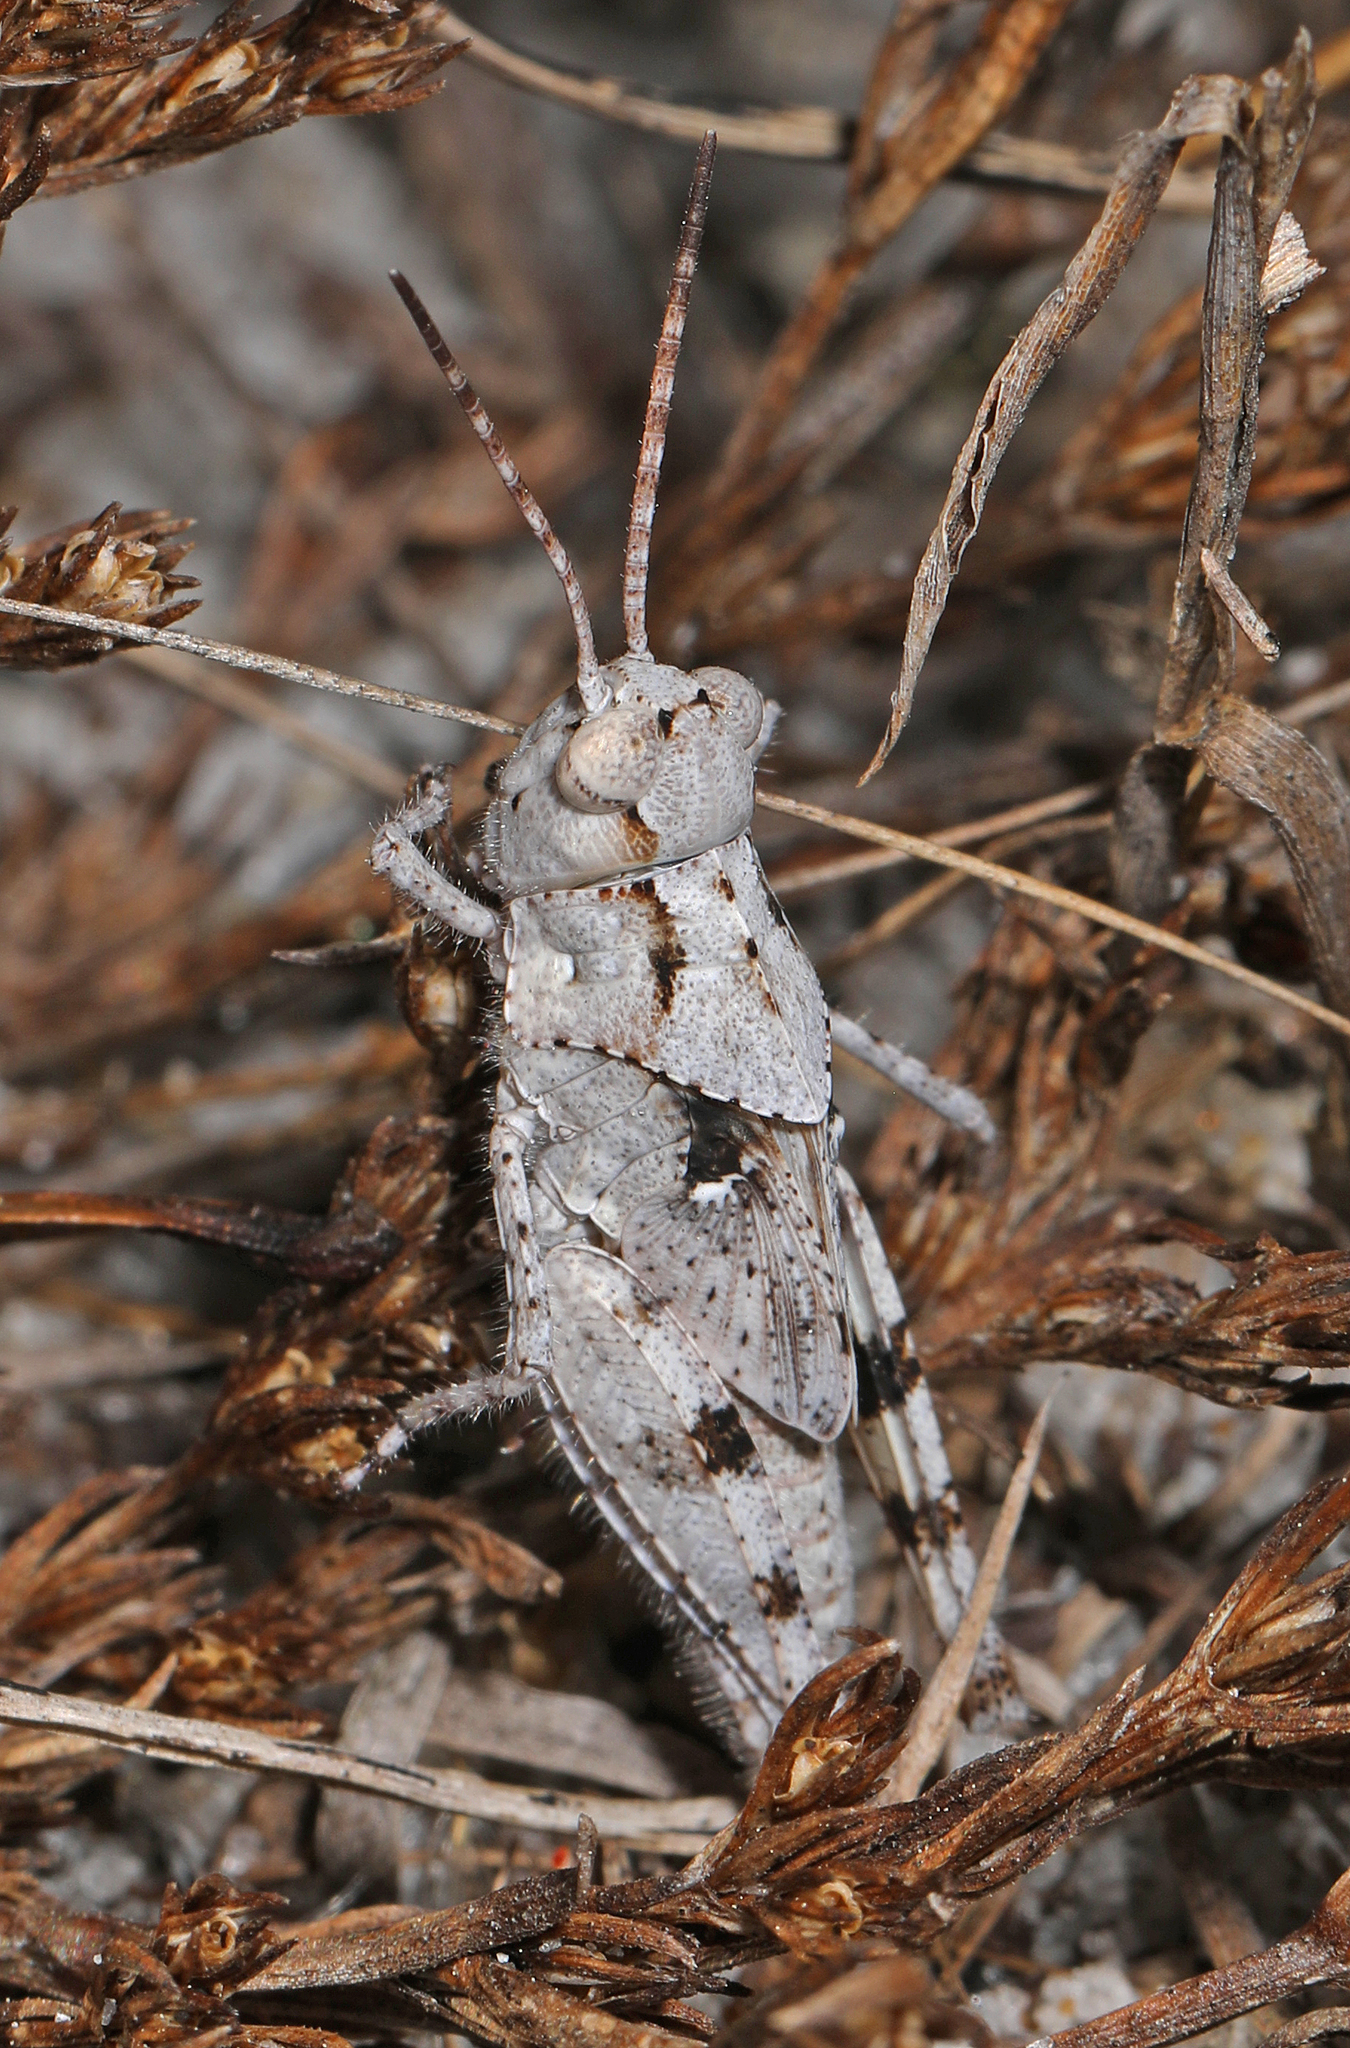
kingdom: Animalia
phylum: Arthropoda
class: Insecta
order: Orthoptera
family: Acrididae
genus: Spharagemon
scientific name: Spharagemon marmoratum
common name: Marbled grasshopper
